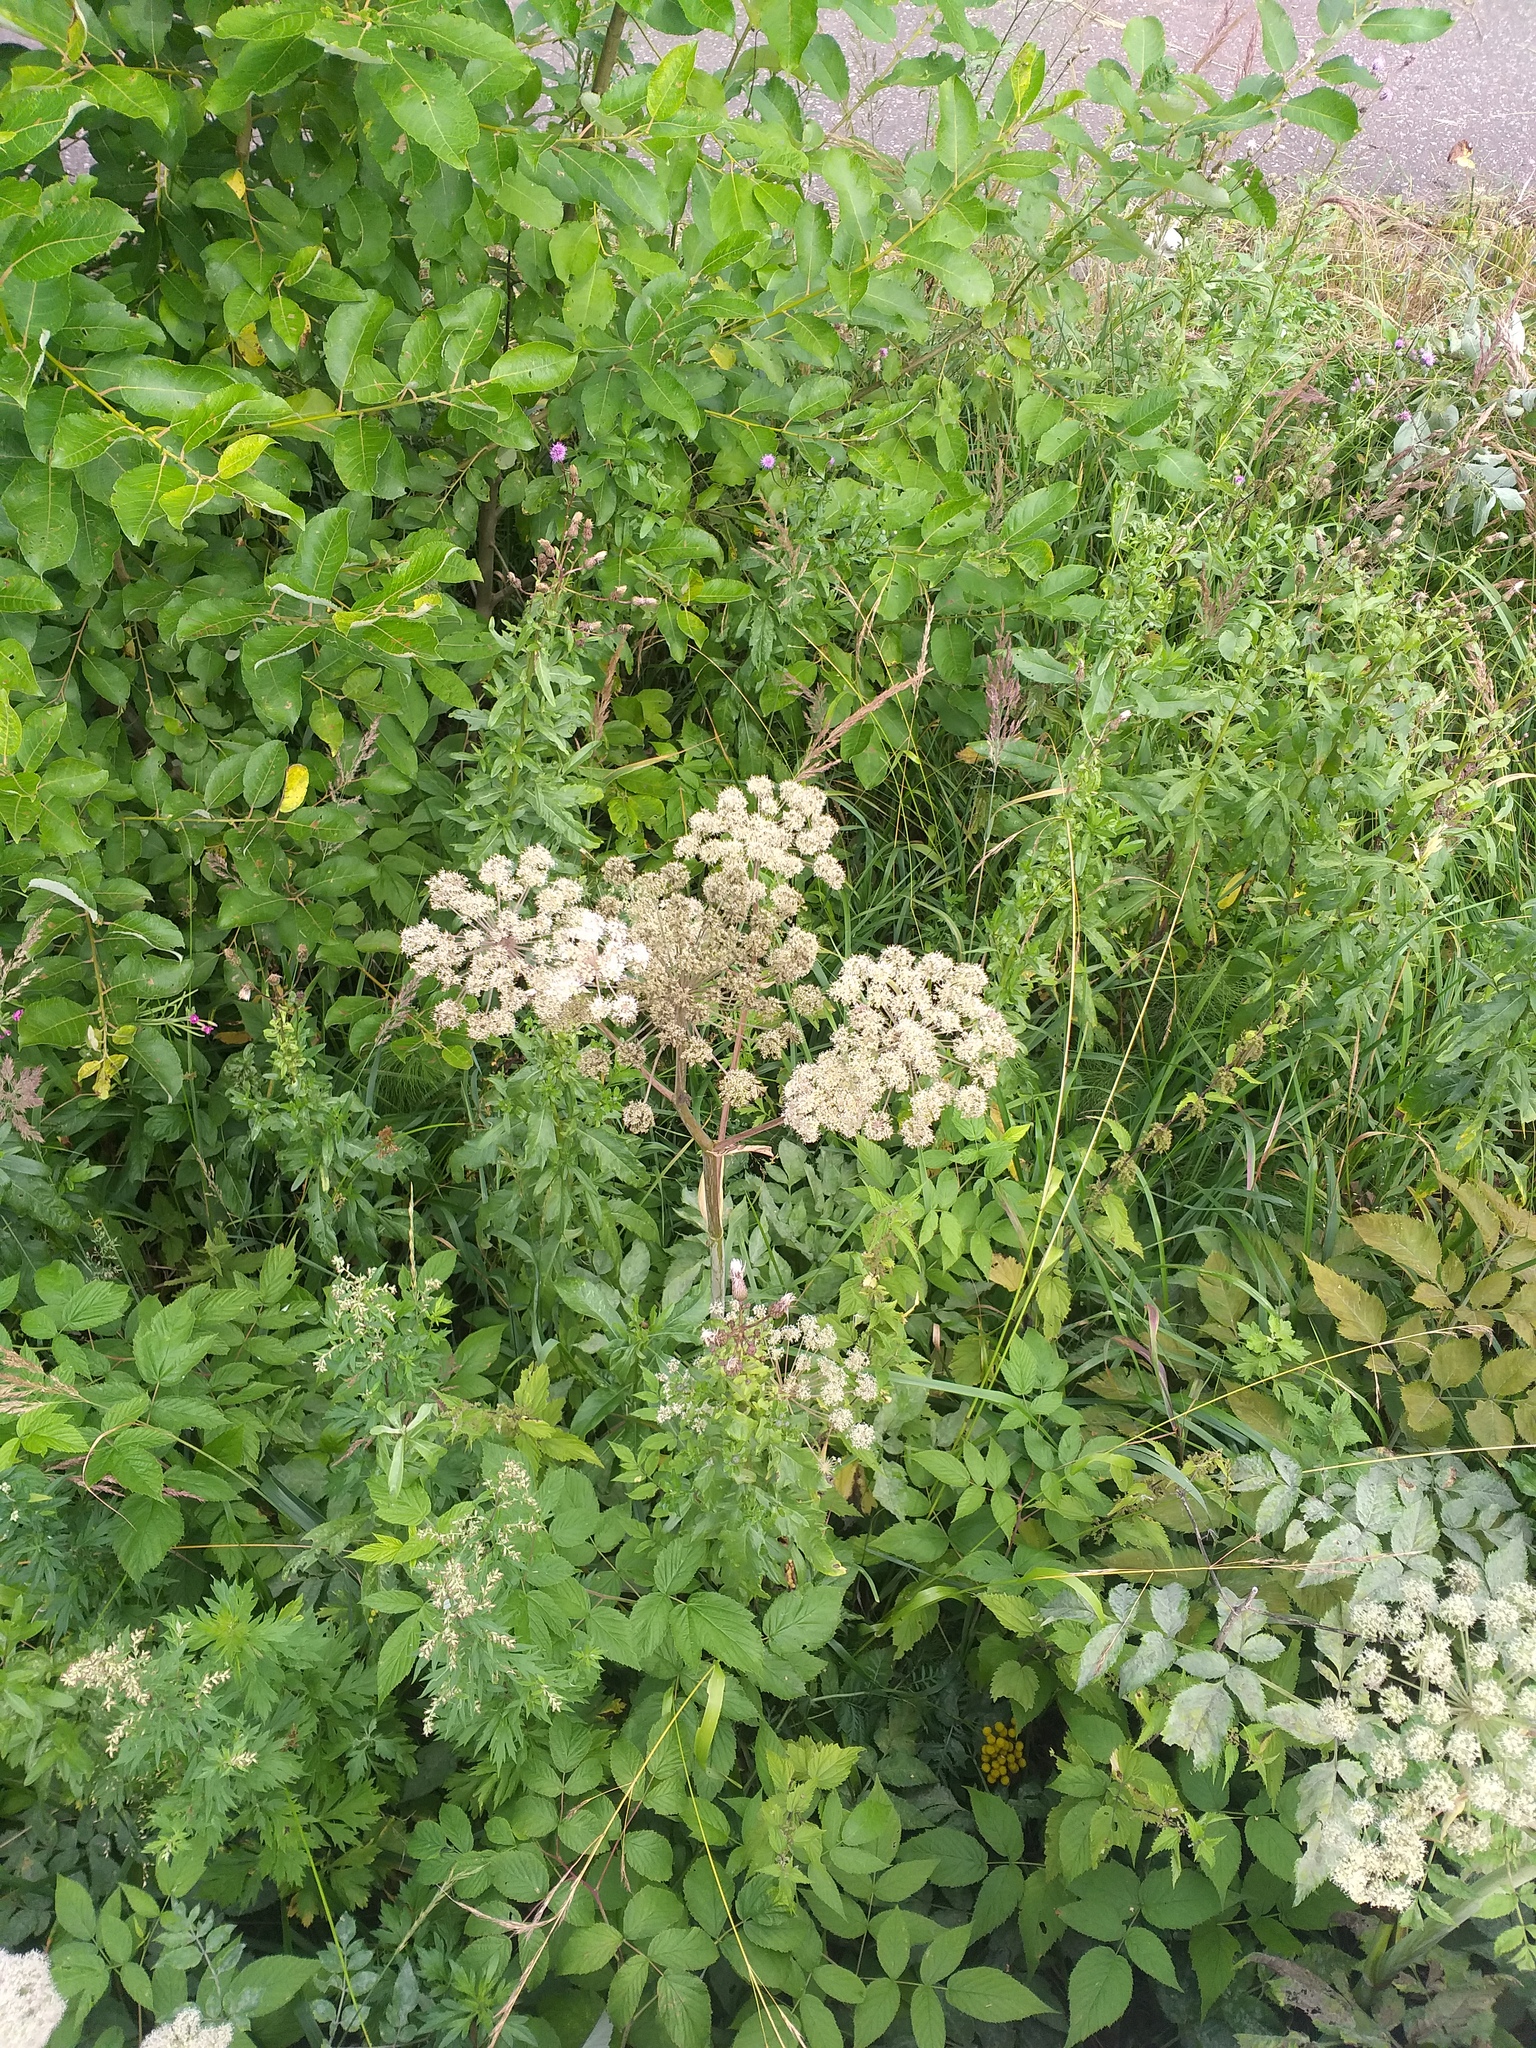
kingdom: Plantae
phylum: Tracheophyta
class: Magnoliopsida
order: Apiales
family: Apiaceae
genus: Angelica
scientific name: Angelica sylvestris
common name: Wild angelica
